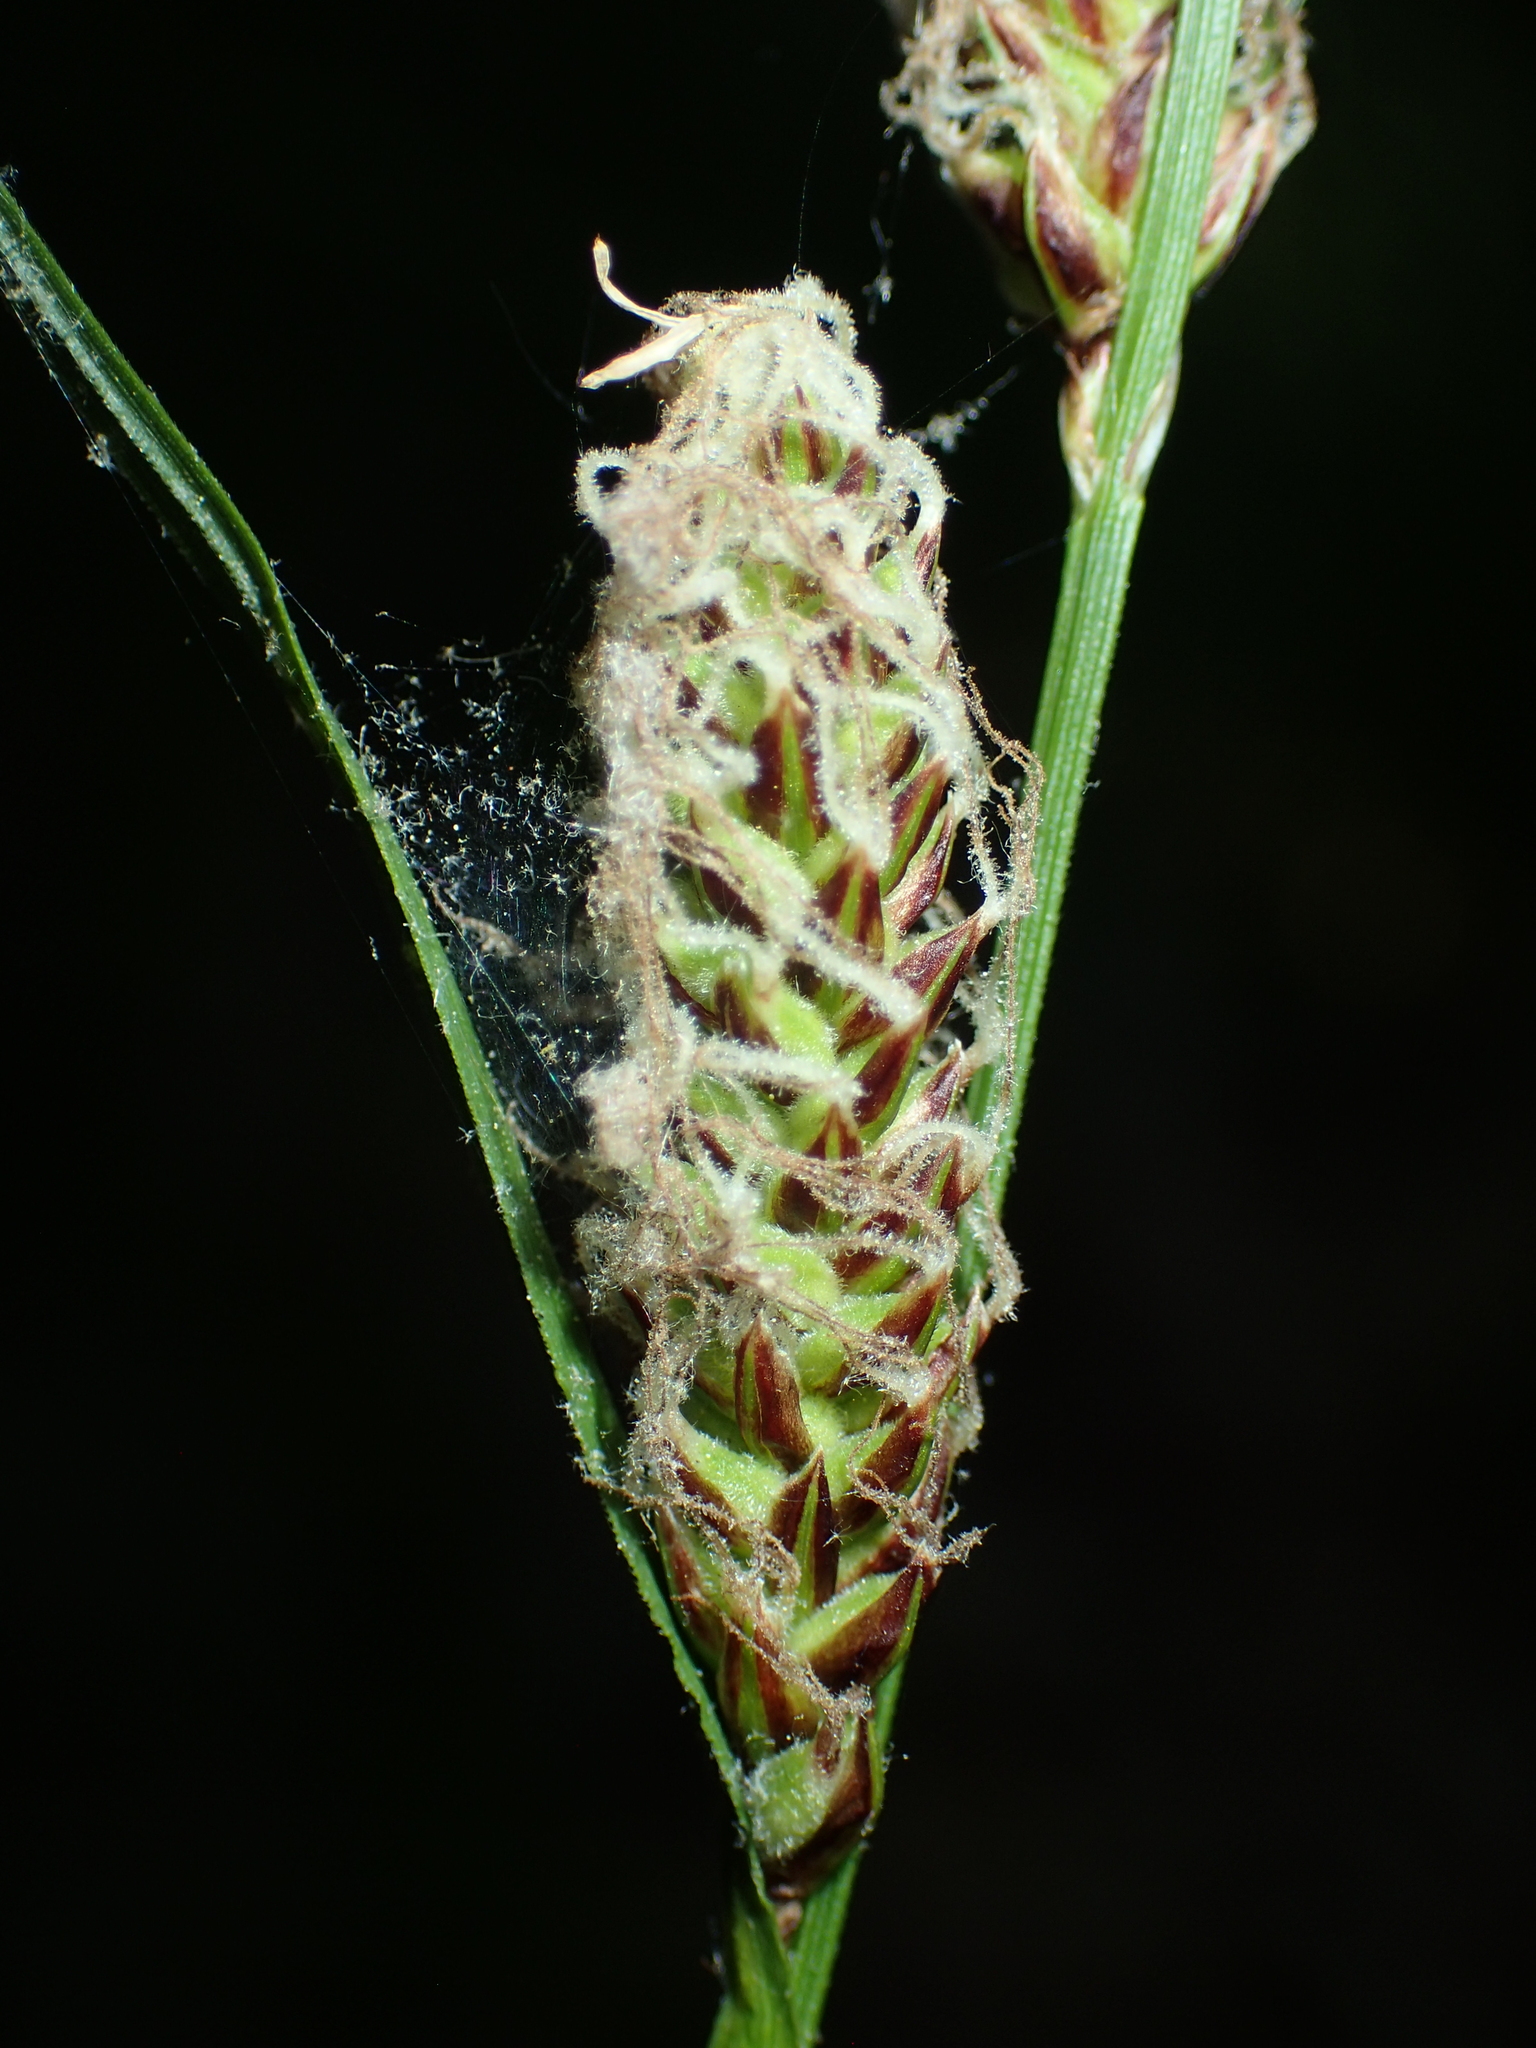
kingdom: Plantae
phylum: Tracheophyta
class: Liliopsida
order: Poales
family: Cyperaceae
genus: Carex
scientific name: Carex vestita
